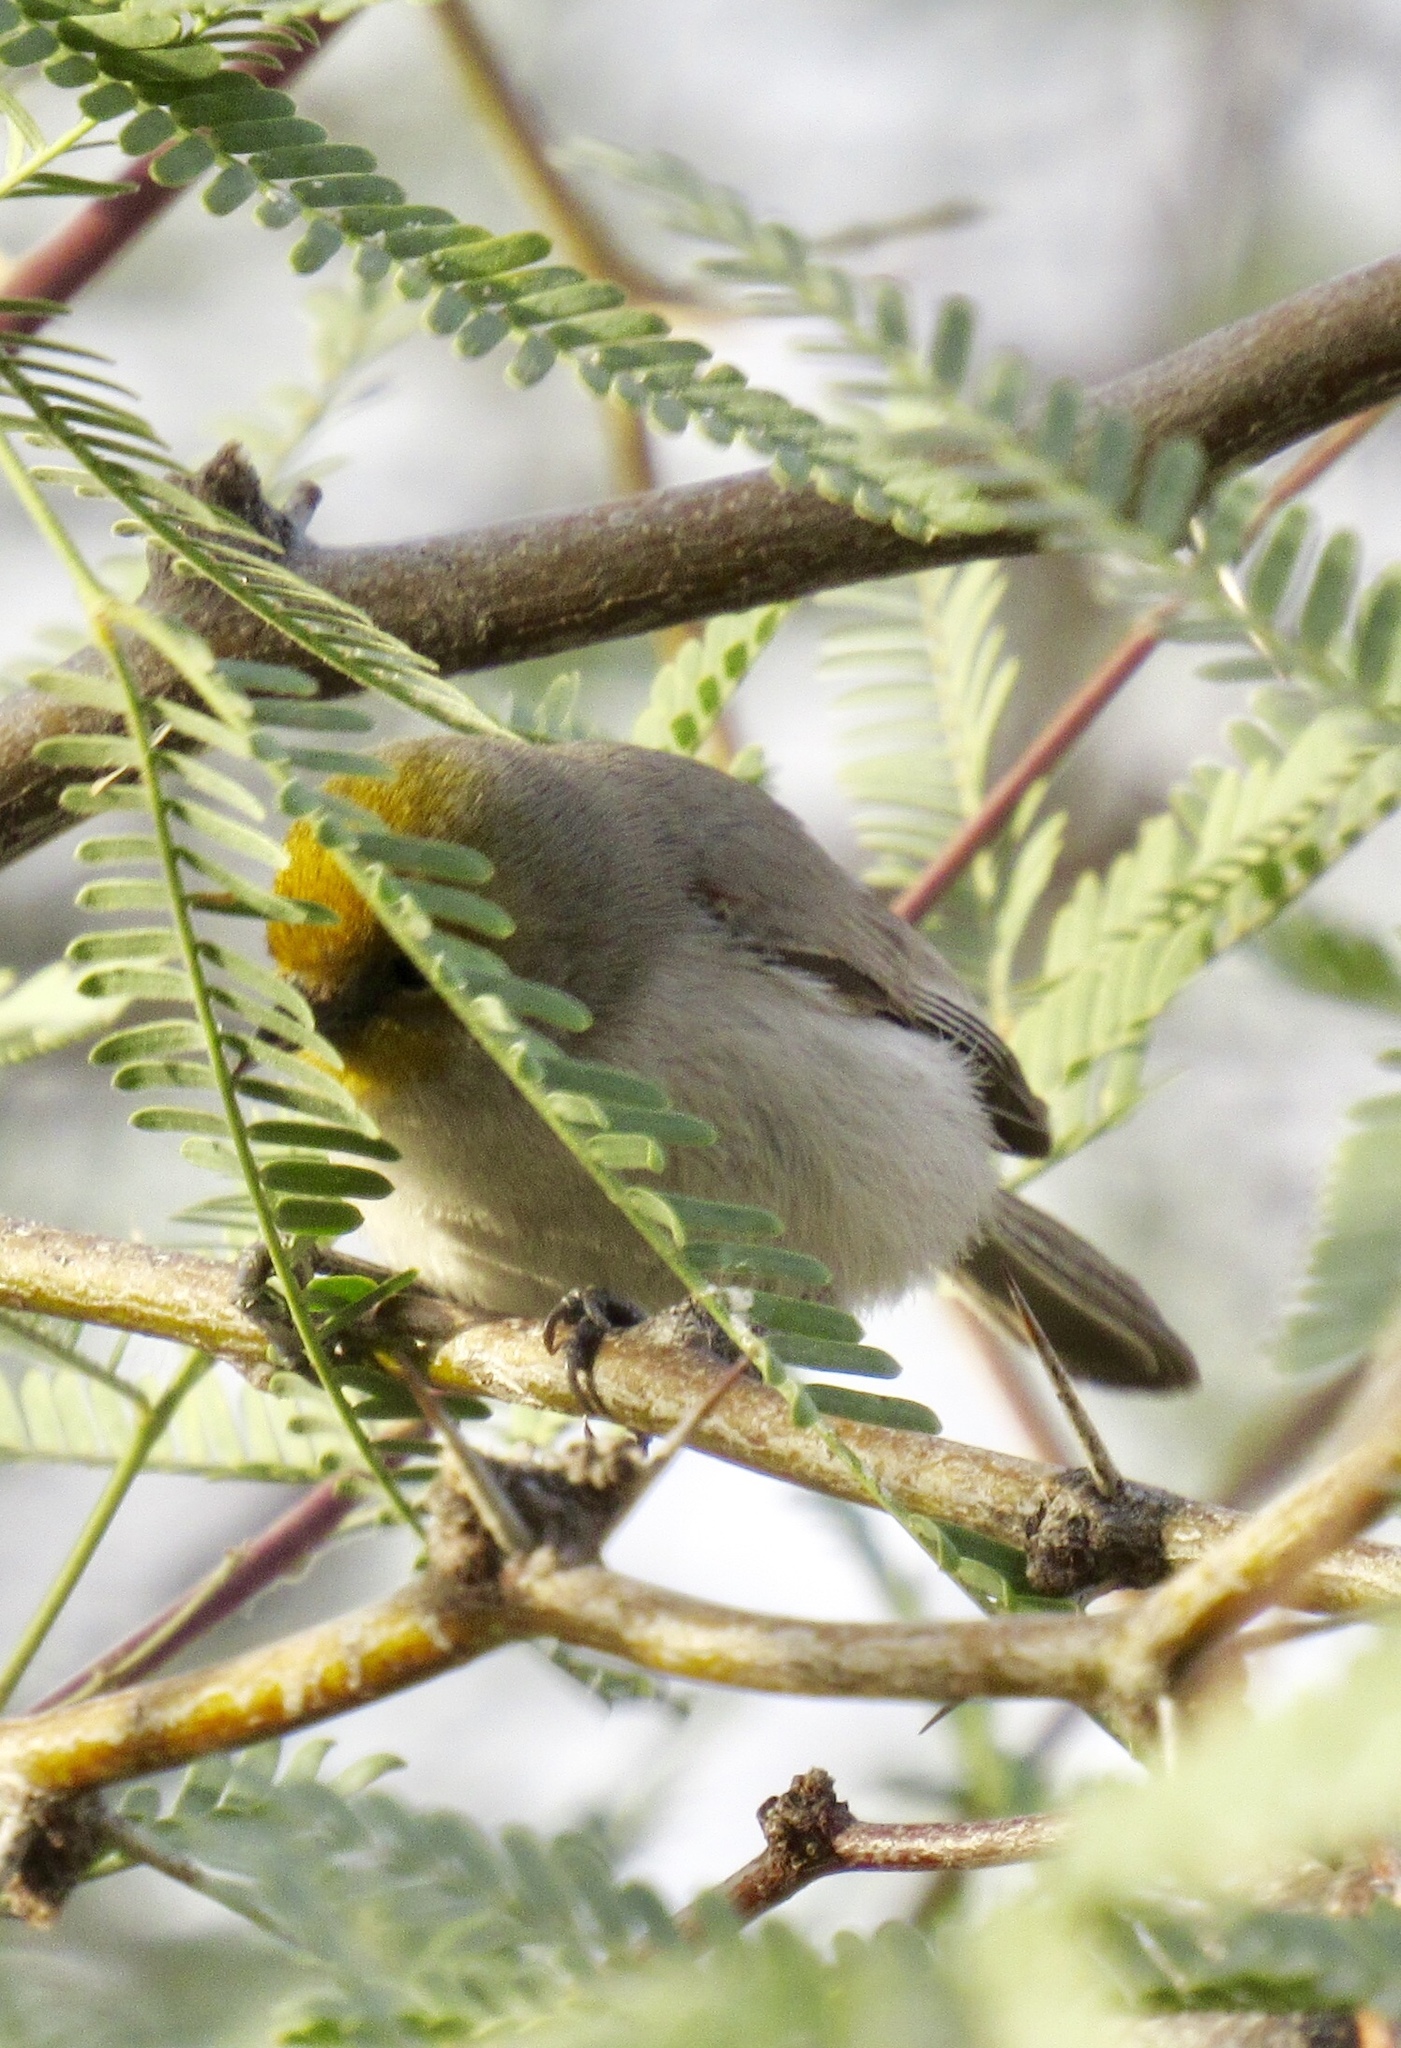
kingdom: Animalia
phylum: Chordata
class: Aves
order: Passeriformes
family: Remizidae
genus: Auriparus
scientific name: Auriparus flaviceps
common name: Verdin
